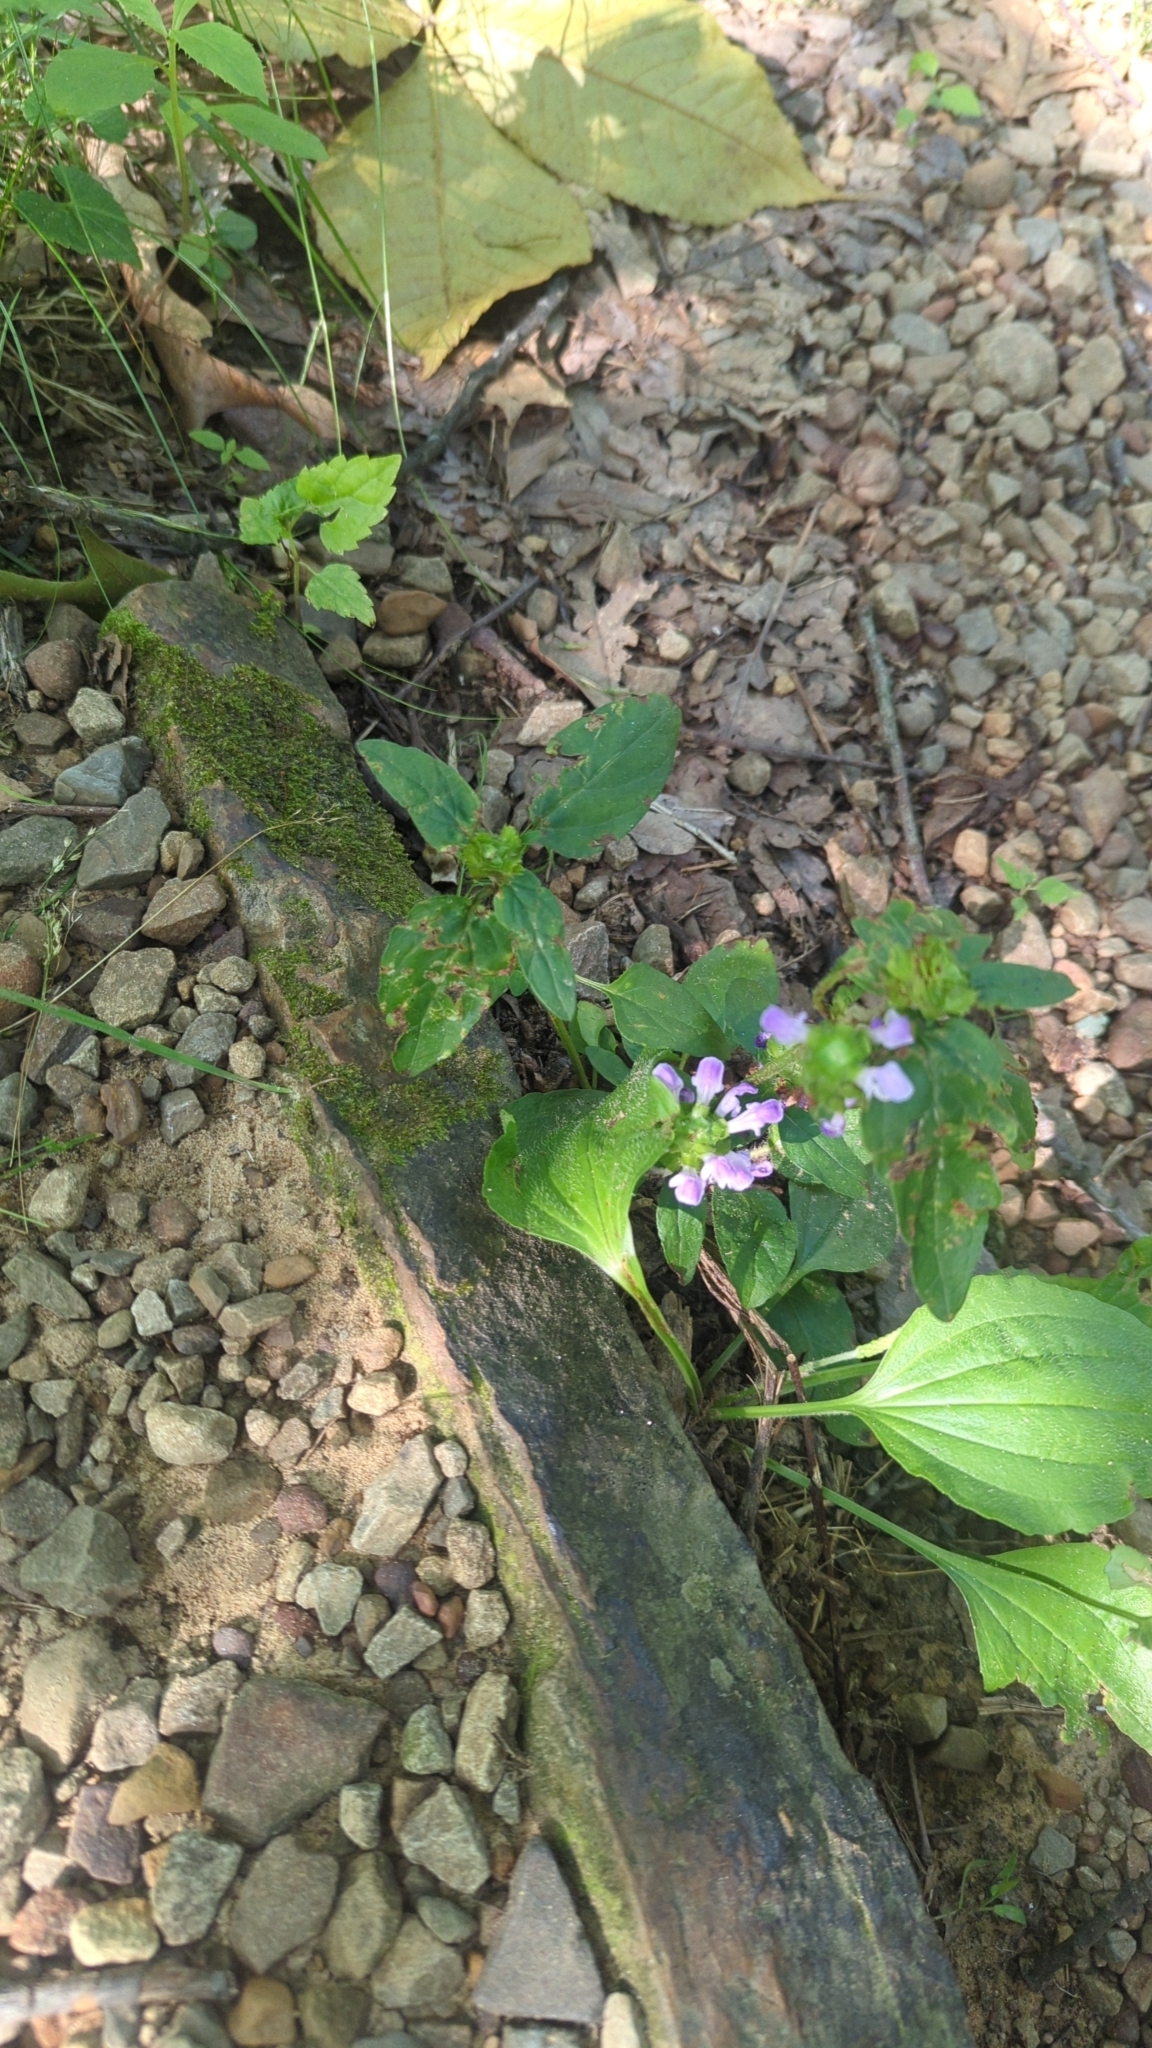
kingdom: Plantae
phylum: Tracheophyta
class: Magnoliopsida
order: Lamiales
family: Lamiaceae
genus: Prunella
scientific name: Prunella vulgaris
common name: Heal-all
